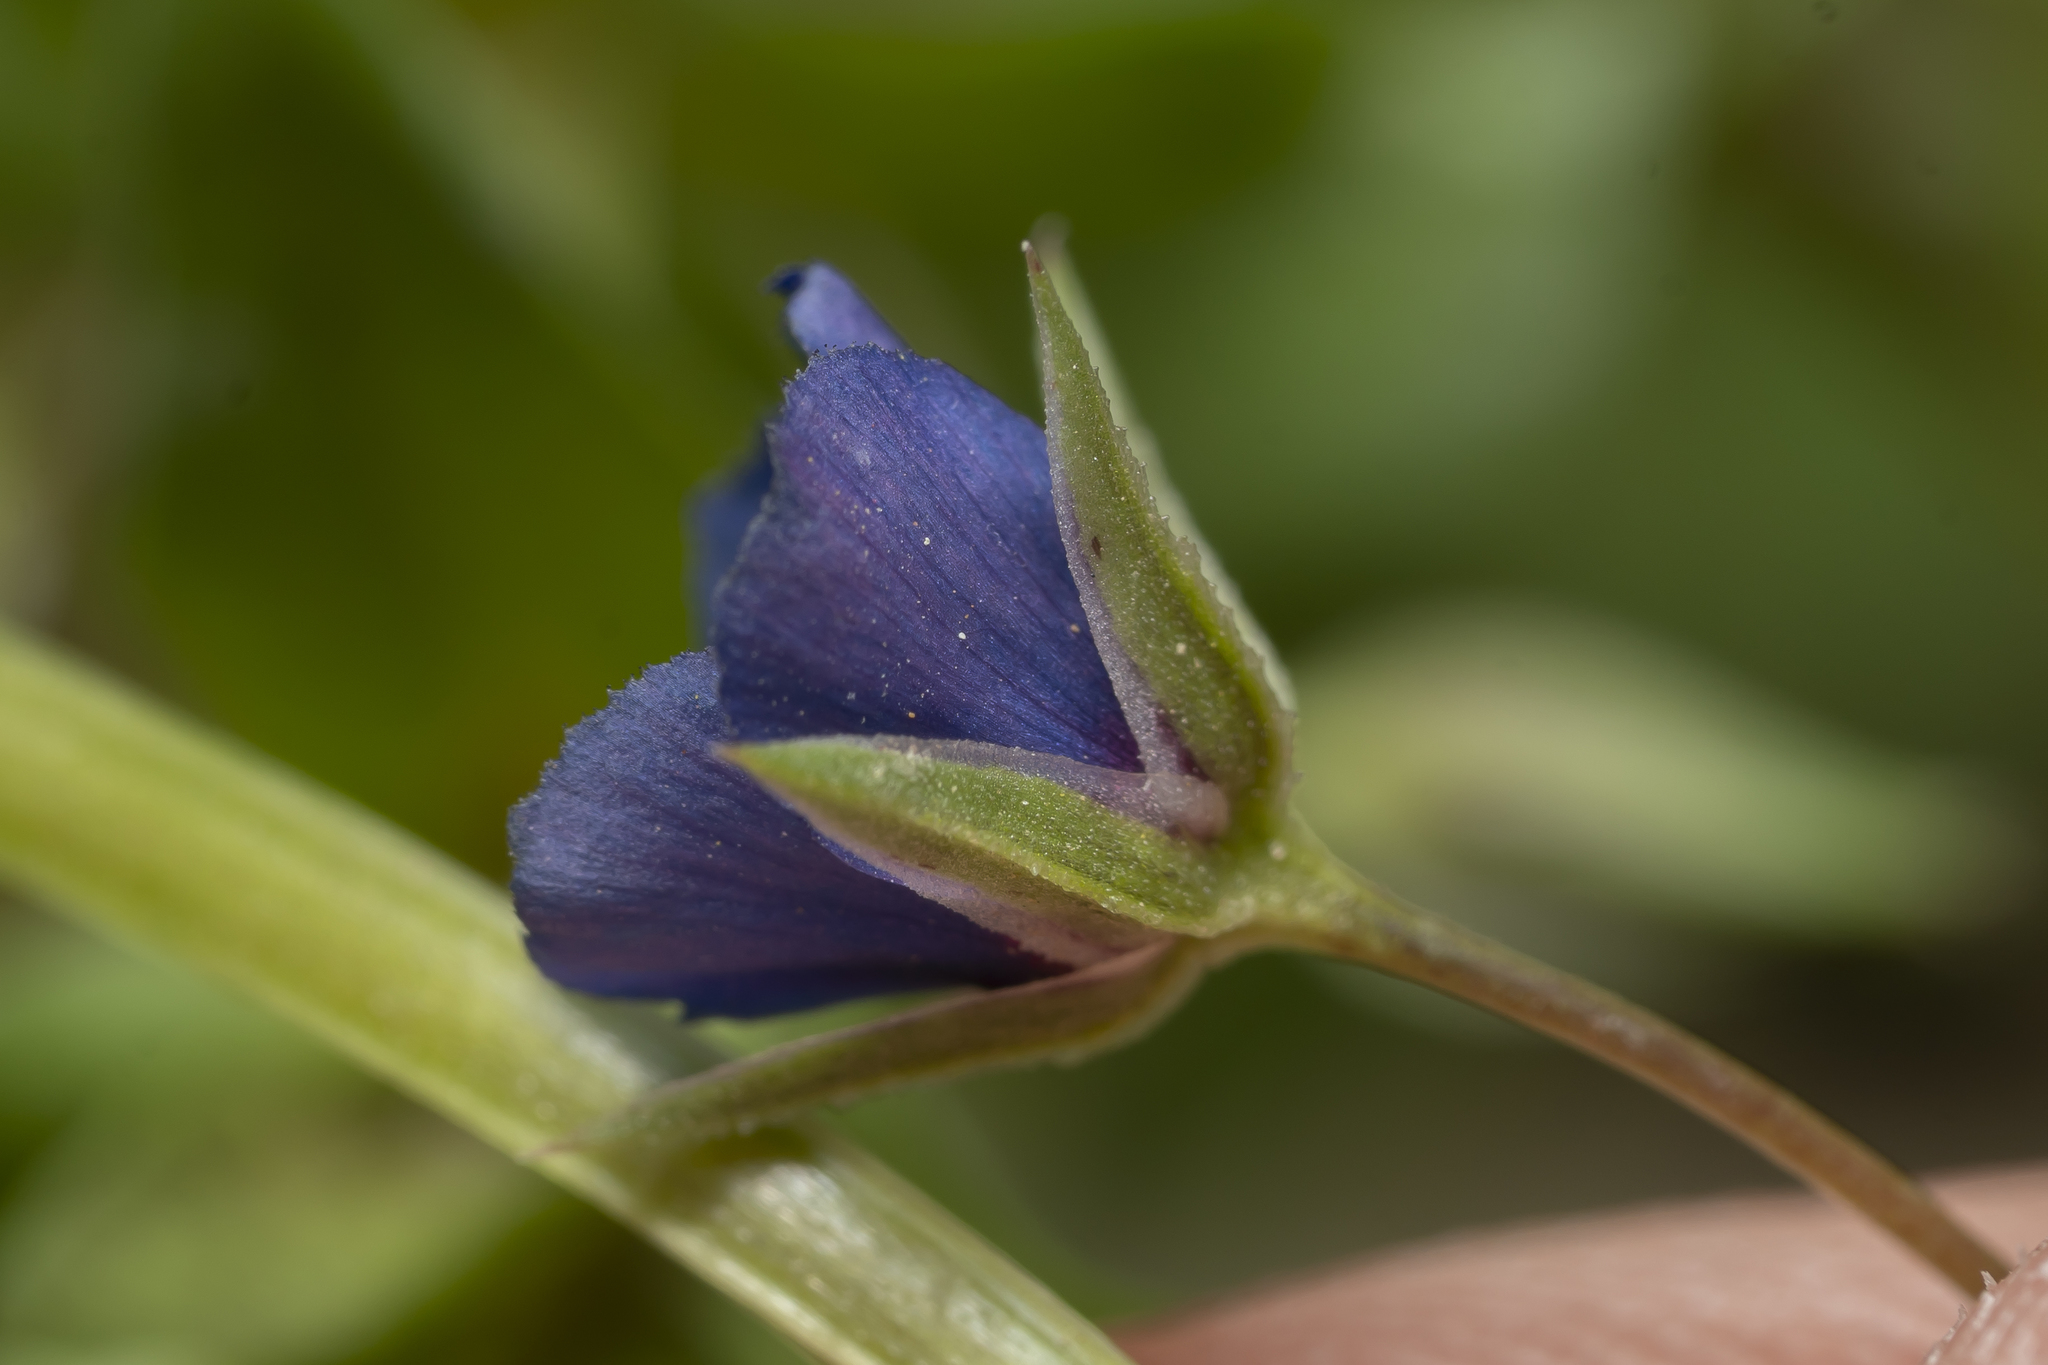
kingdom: Plantae
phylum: Tracheophyta
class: Magnoliopsida
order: Ericales
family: Primulaceae
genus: Lysimachia
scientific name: Lysimachia loeflingii
